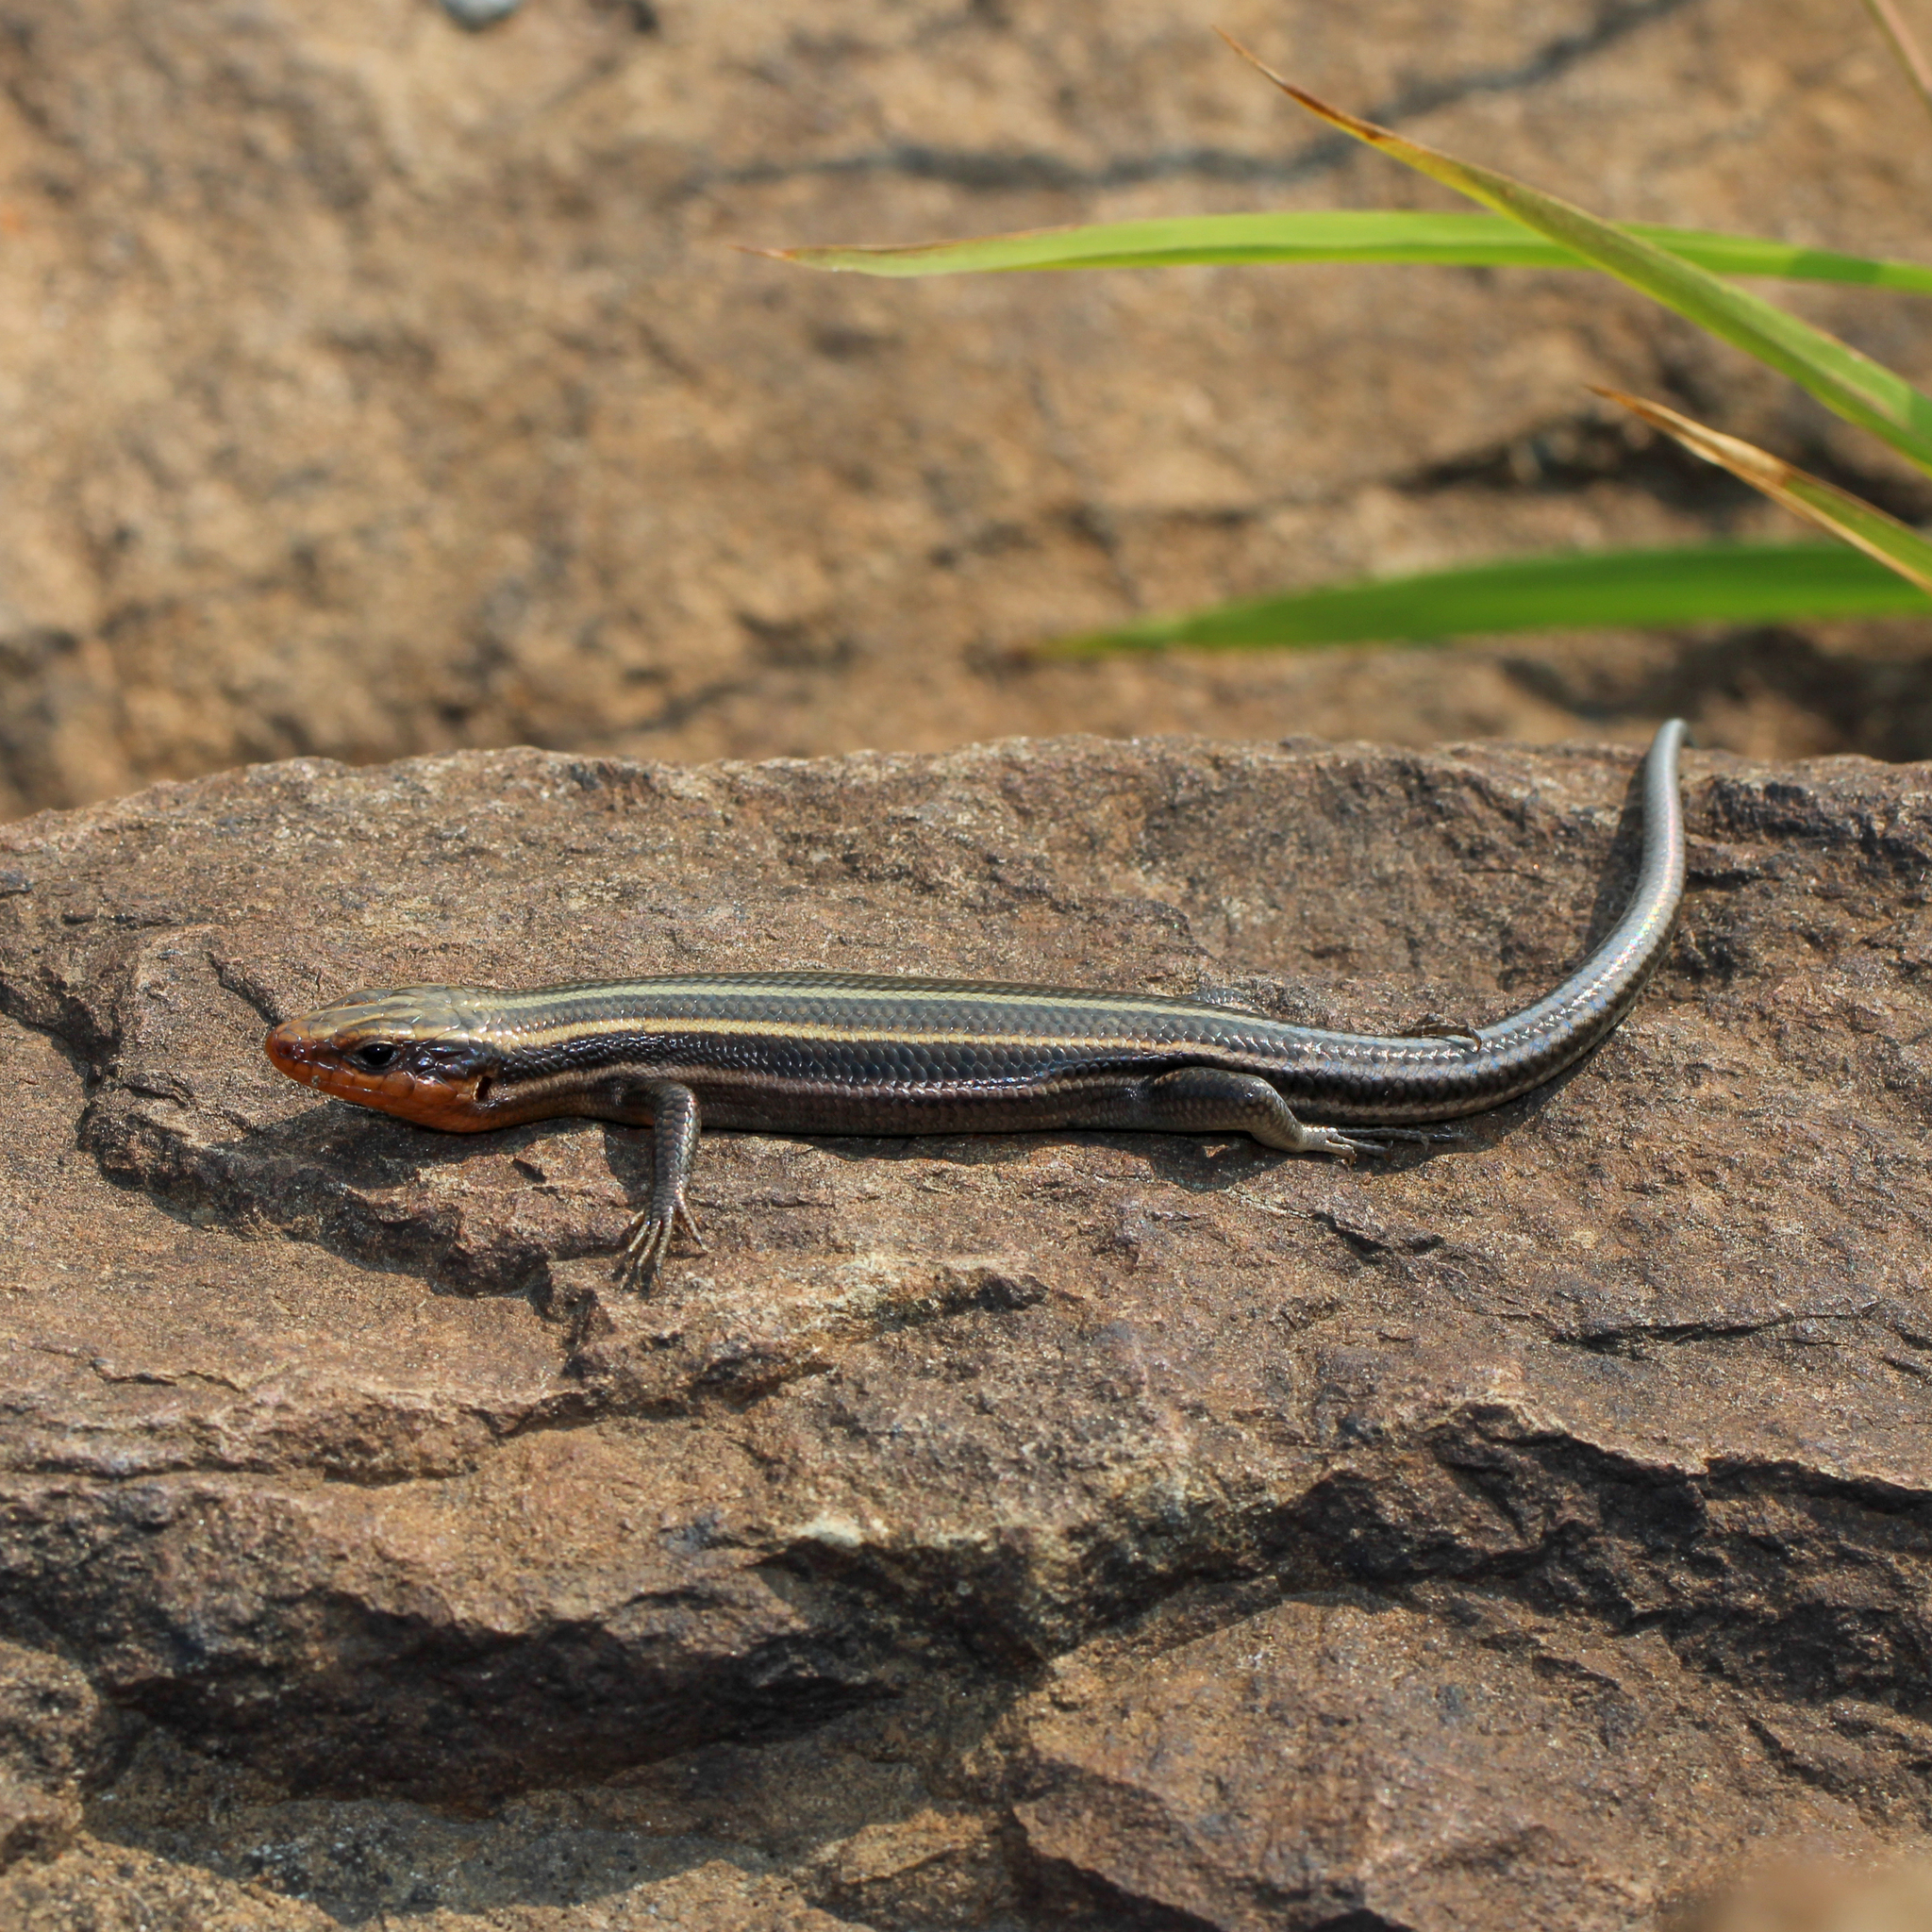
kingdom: Animalia
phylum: Chordata
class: Squamata
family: Scincidae
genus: Plestiodon
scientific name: Plestiodon fasciatus
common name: Five-lined skink
